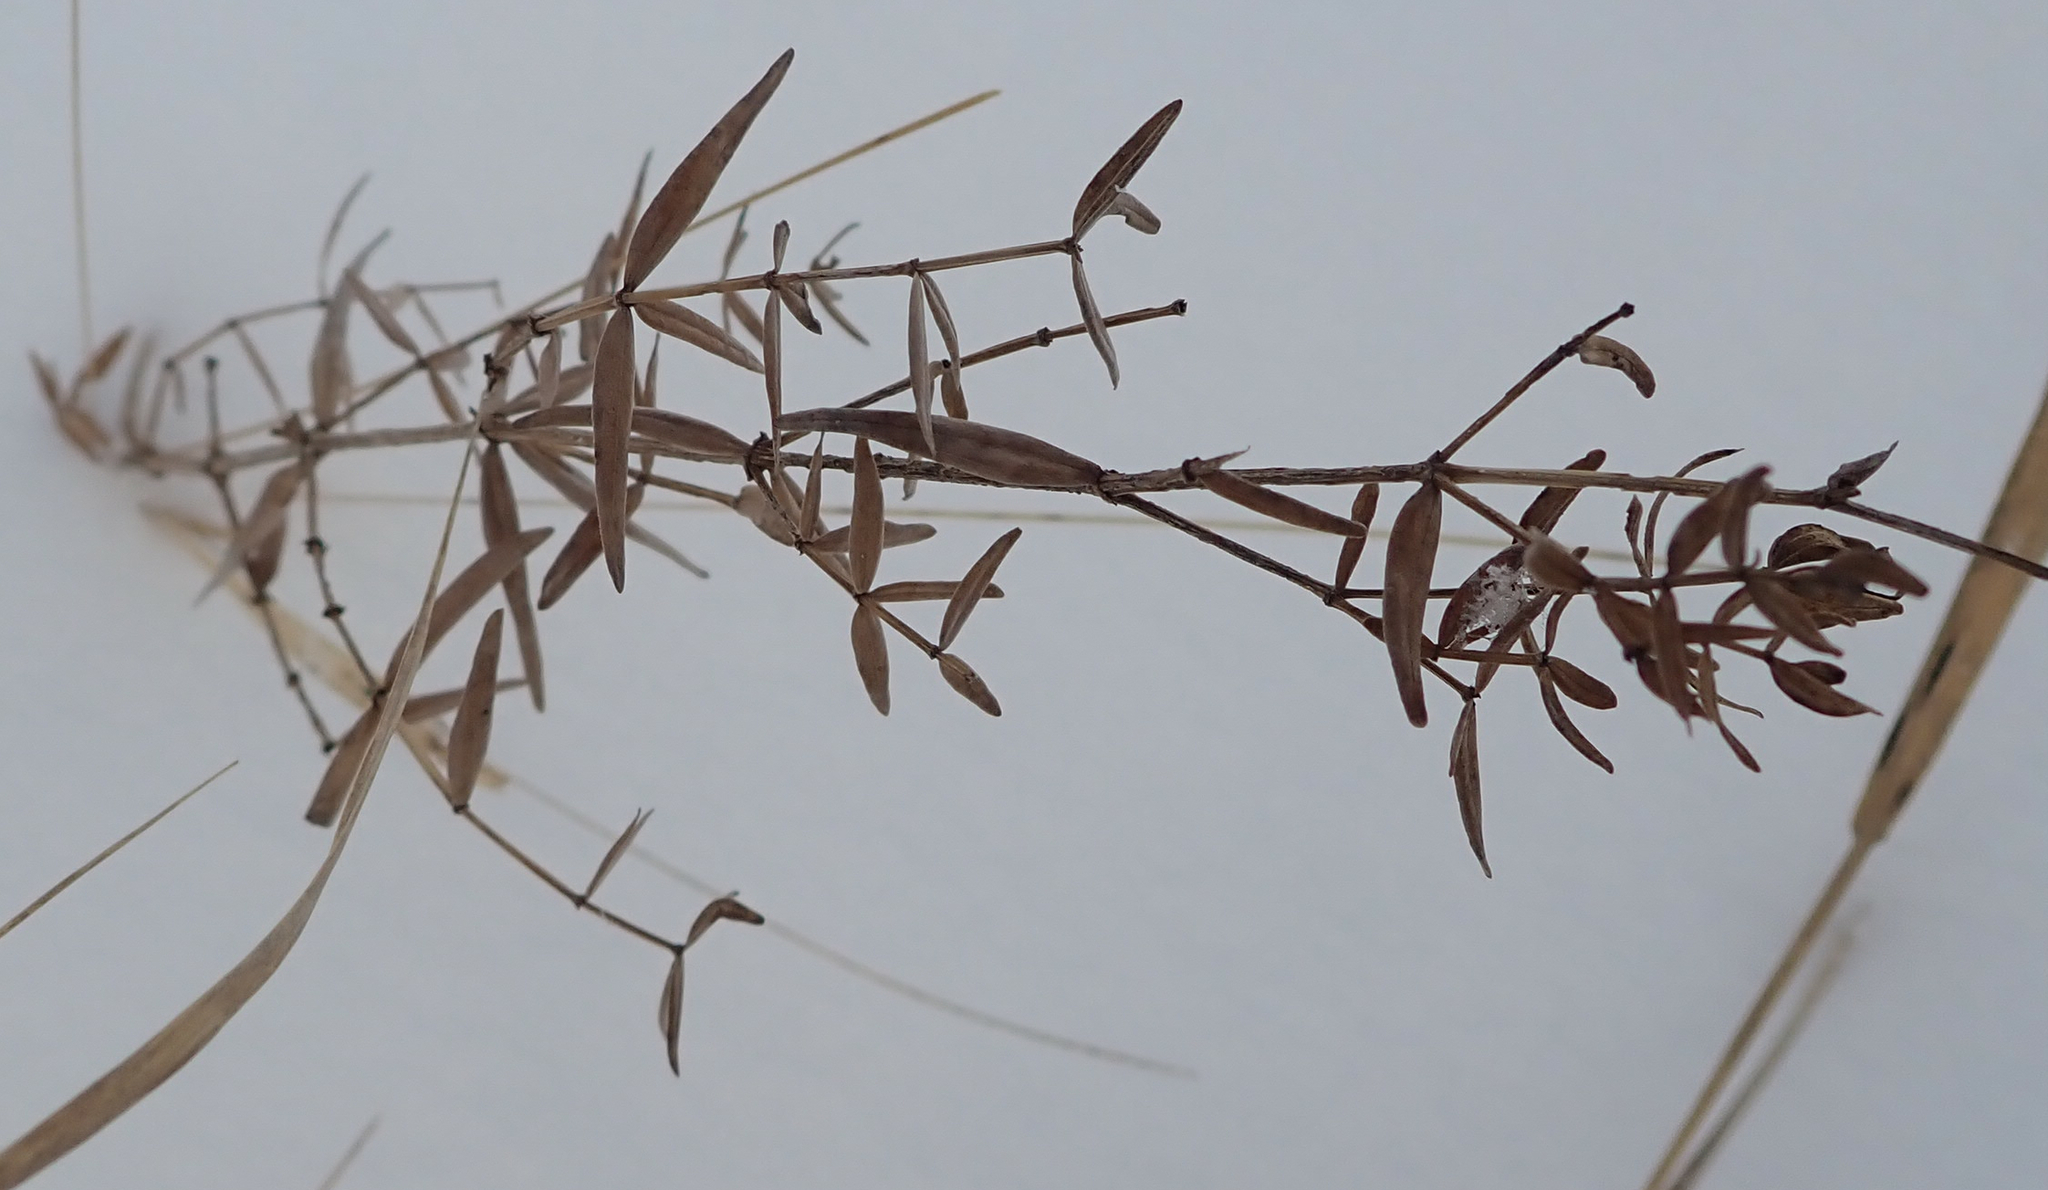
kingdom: Plantae
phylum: Tracheophyta
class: Magnoliopsida
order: Gentianales
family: Rubiaceae
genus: Galium
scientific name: Galium boreale
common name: Northern bedstraw
